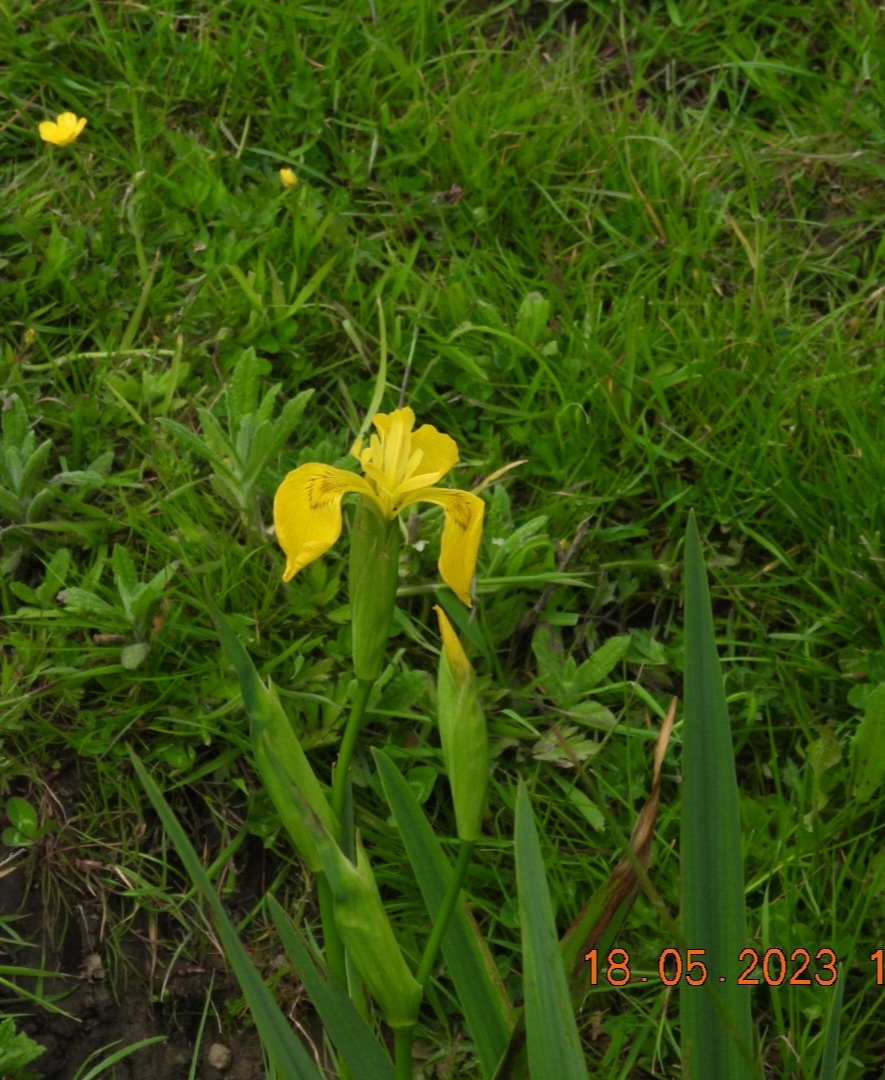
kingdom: Plantae
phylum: Tracheophyta
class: Liliopsida
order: Asparagales
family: Iridaceae
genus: Iris
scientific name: Iris pseudacorus
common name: Yellow flag
